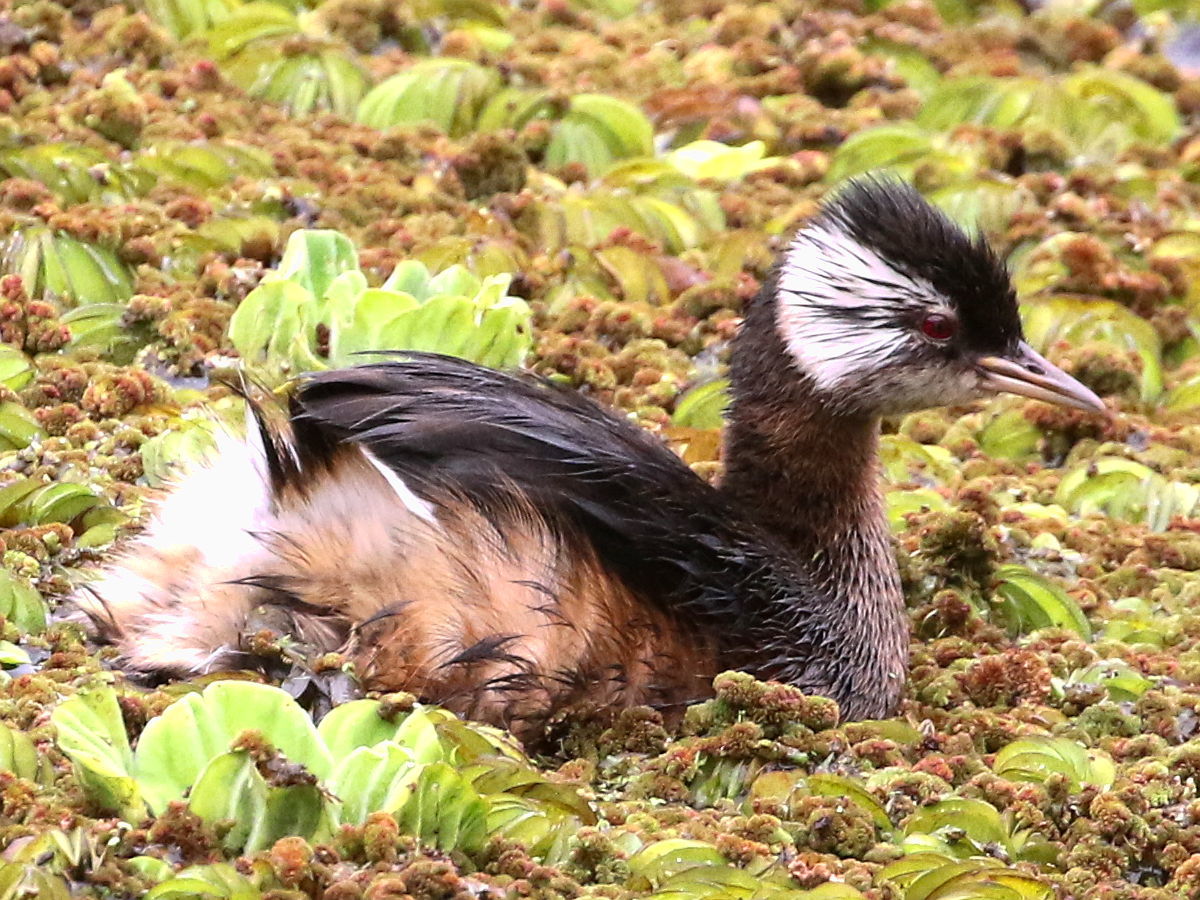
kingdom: Animalia
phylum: Chordata
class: Aves
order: Podicipediformes
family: Podicipedidae
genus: Rollandia
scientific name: Rollandia rolland
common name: White-tufted grebe
